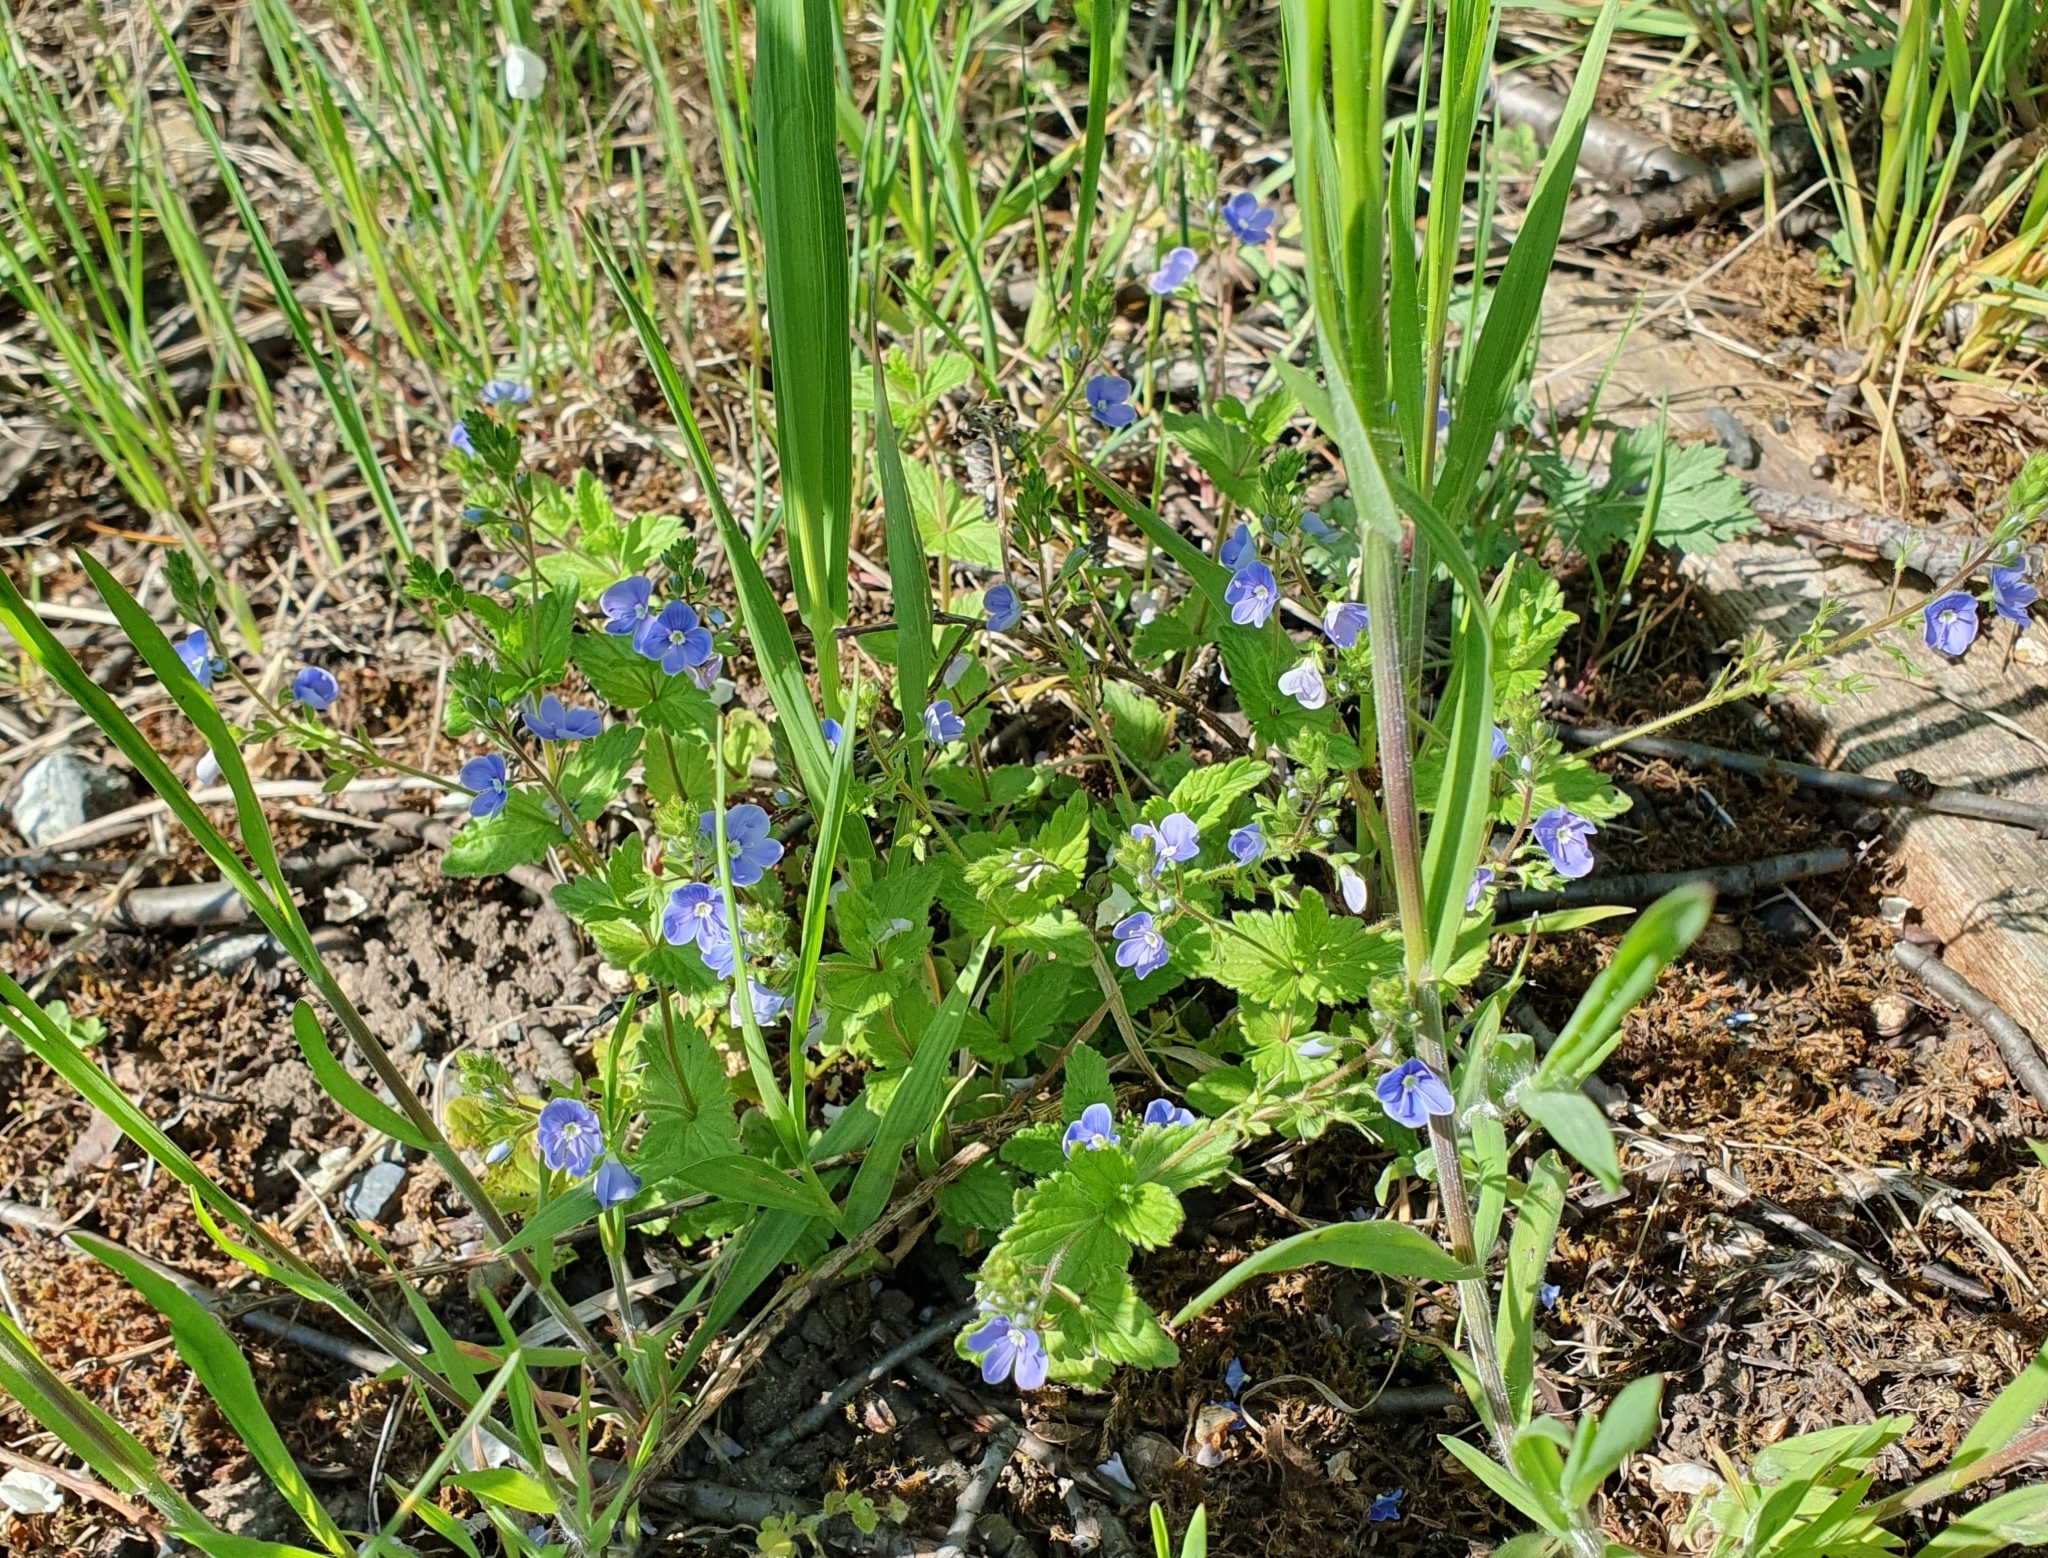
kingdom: Plantae
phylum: Tracheophyta
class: Magnoliopsida
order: Lamiales
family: Plantaginaceae
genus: Veronica
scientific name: Veronica chamaedrys
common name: Germander speedwell
